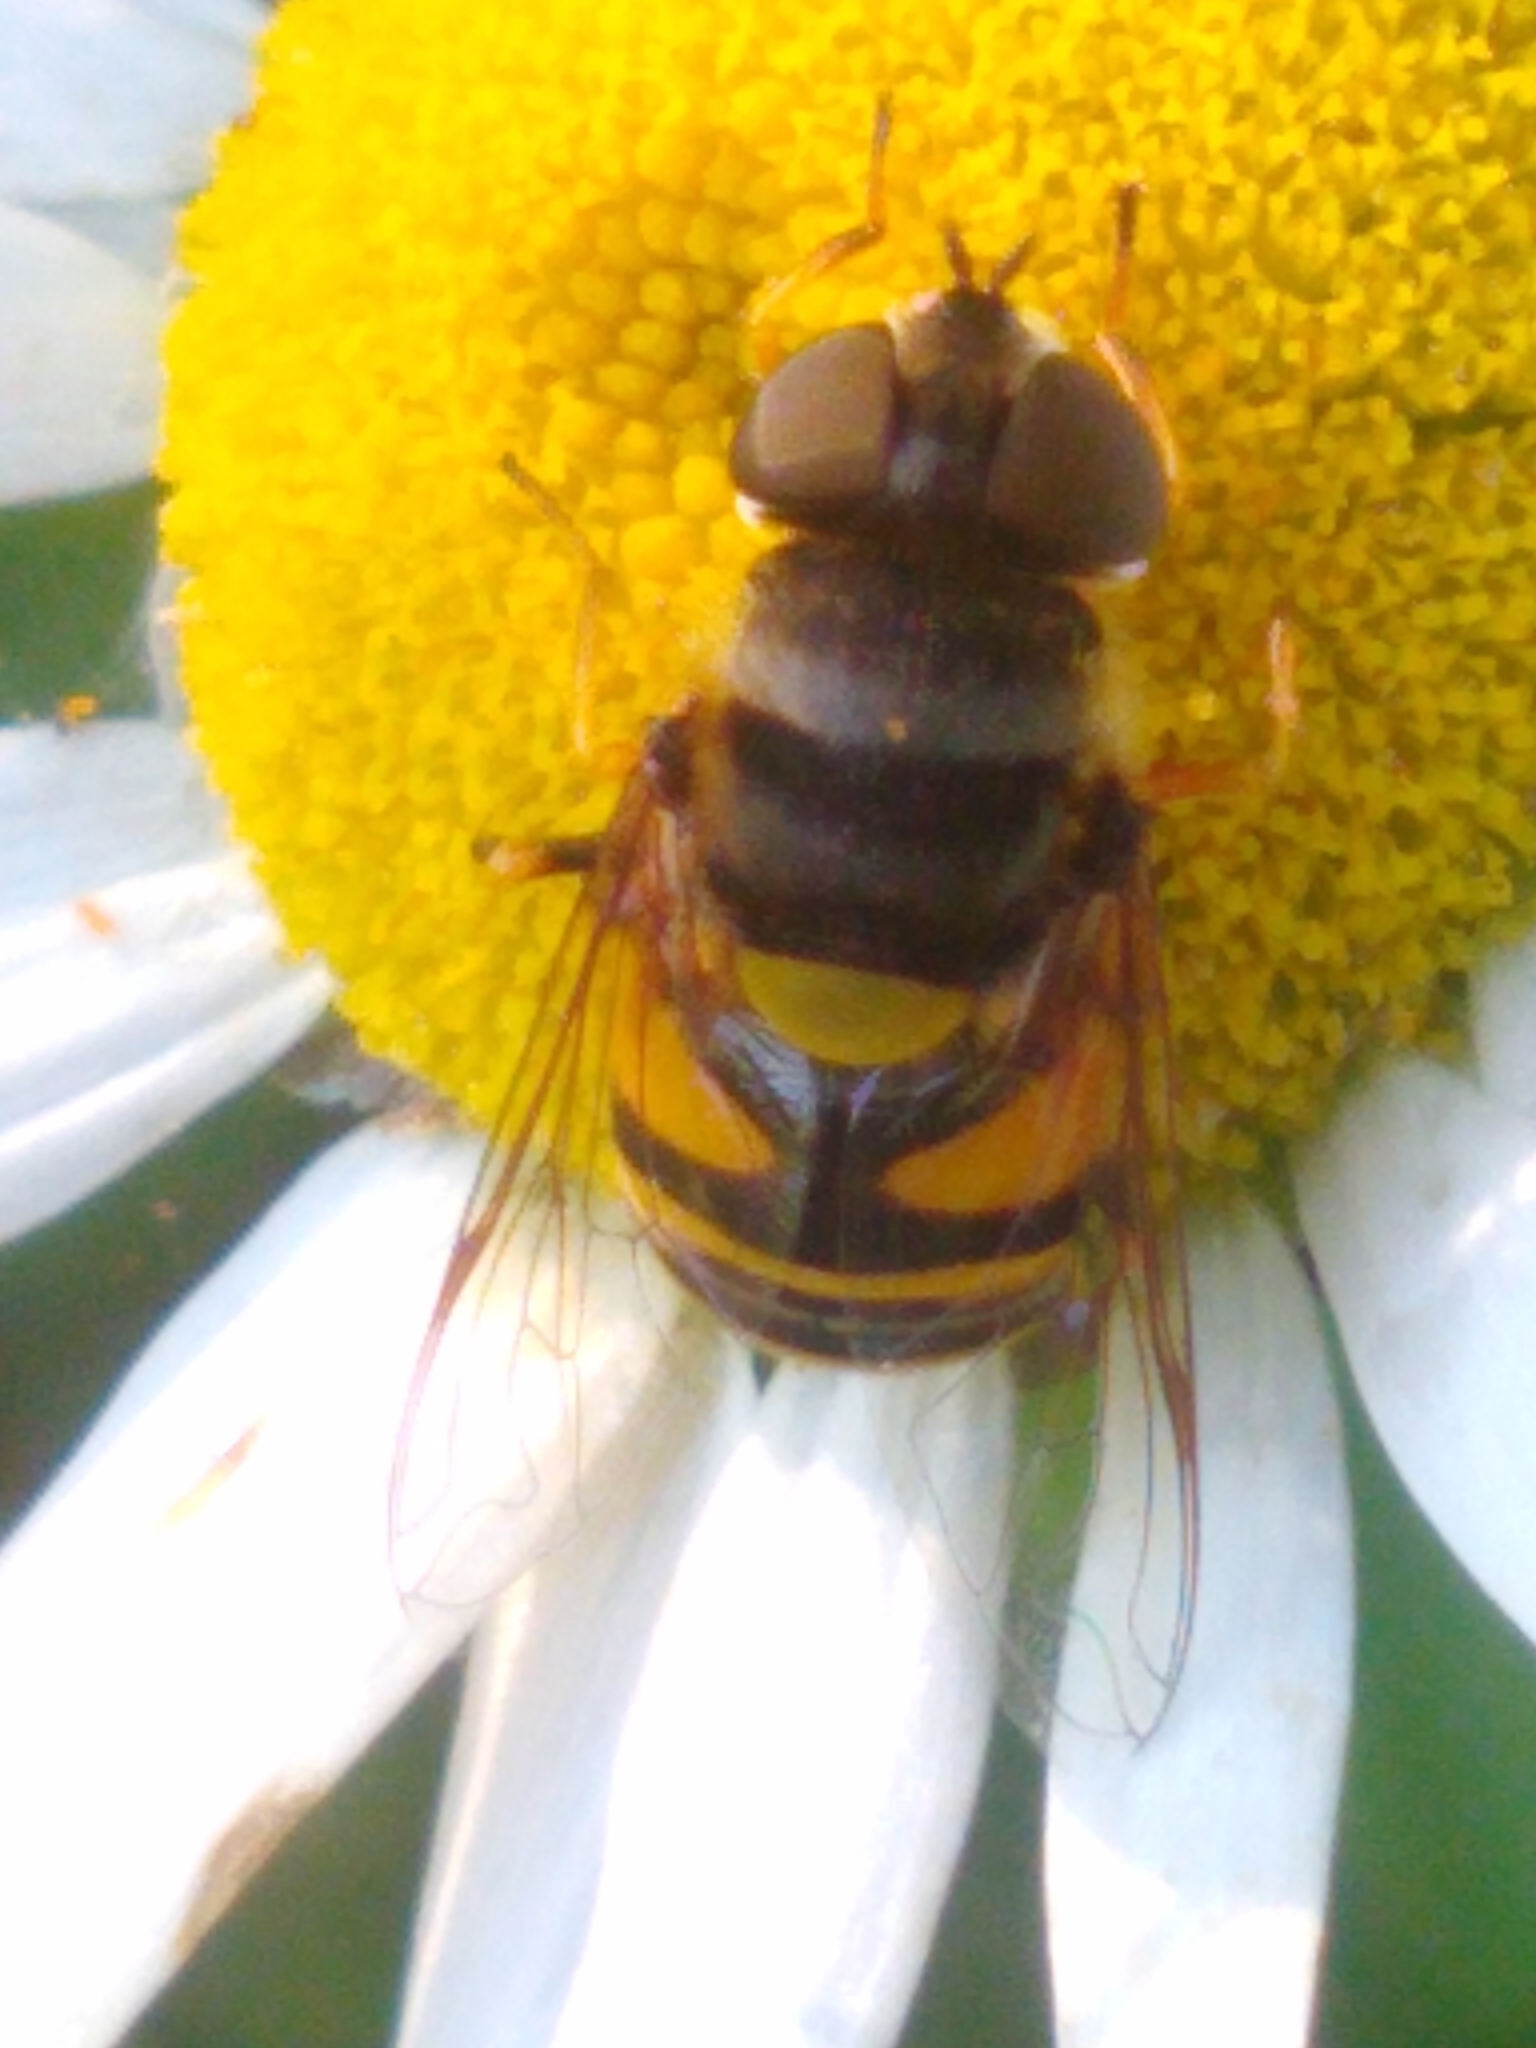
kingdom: Animalia
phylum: Arthropoda
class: Insecta
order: Diptera
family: Syrphidae
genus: Eristalis
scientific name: Eristalis transversa
